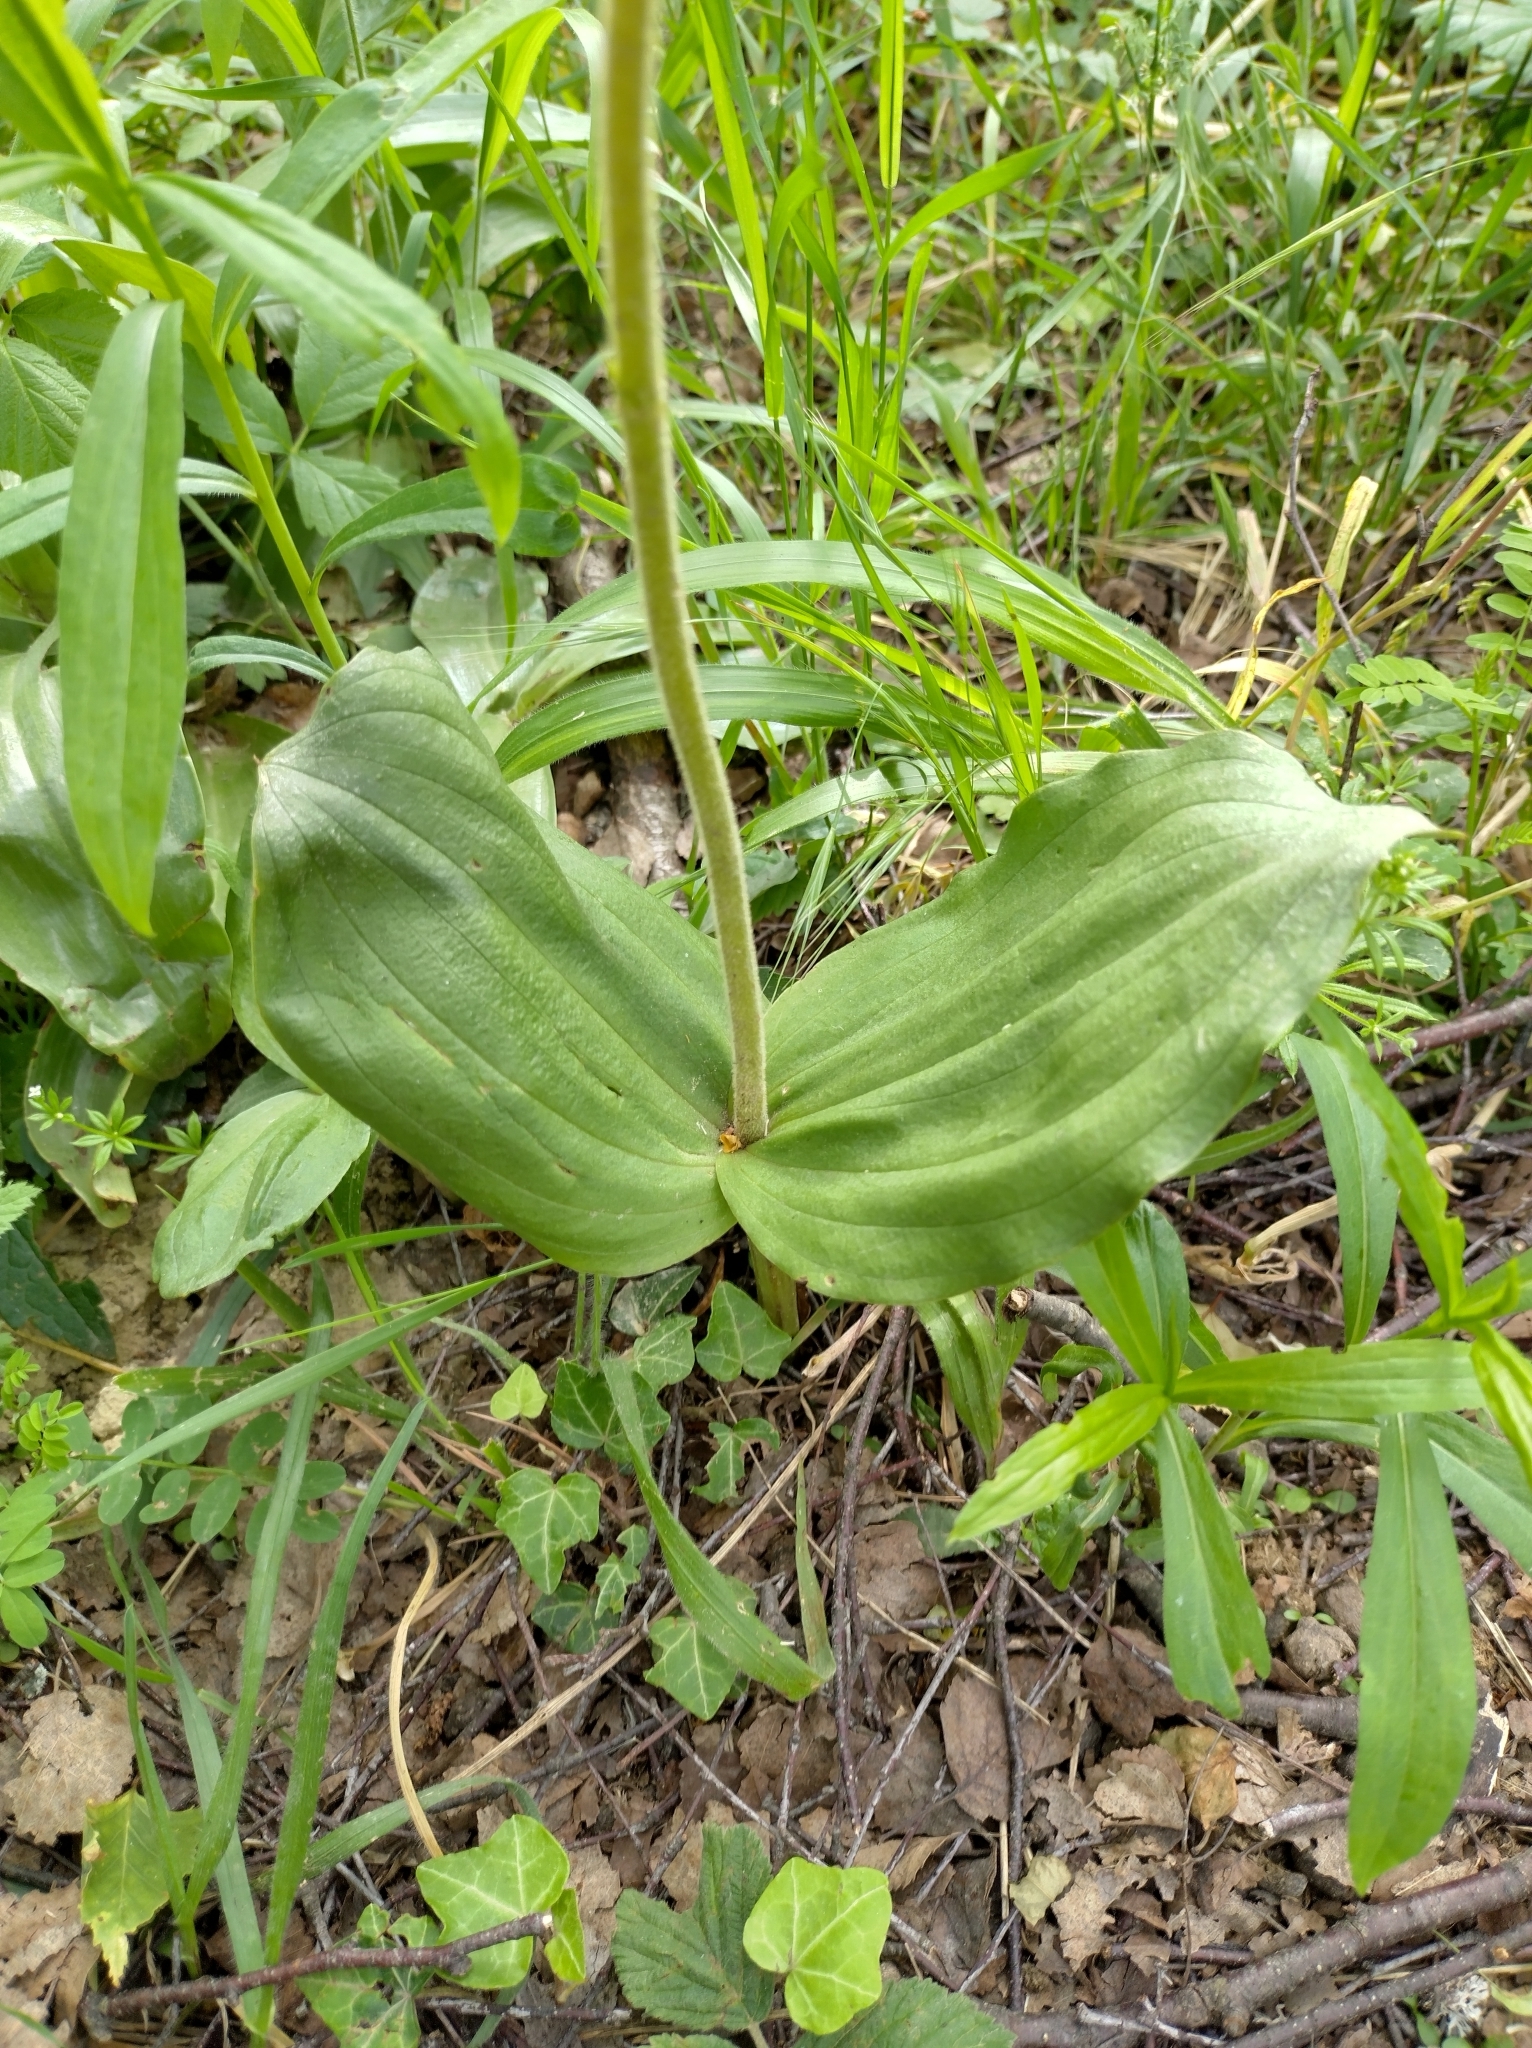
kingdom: Plantae
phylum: Tracheophyta
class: Liliopsida
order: Asparagales
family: Orchidaceae
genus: Neottia
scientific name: Neottia ovata
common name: Common twayblade
